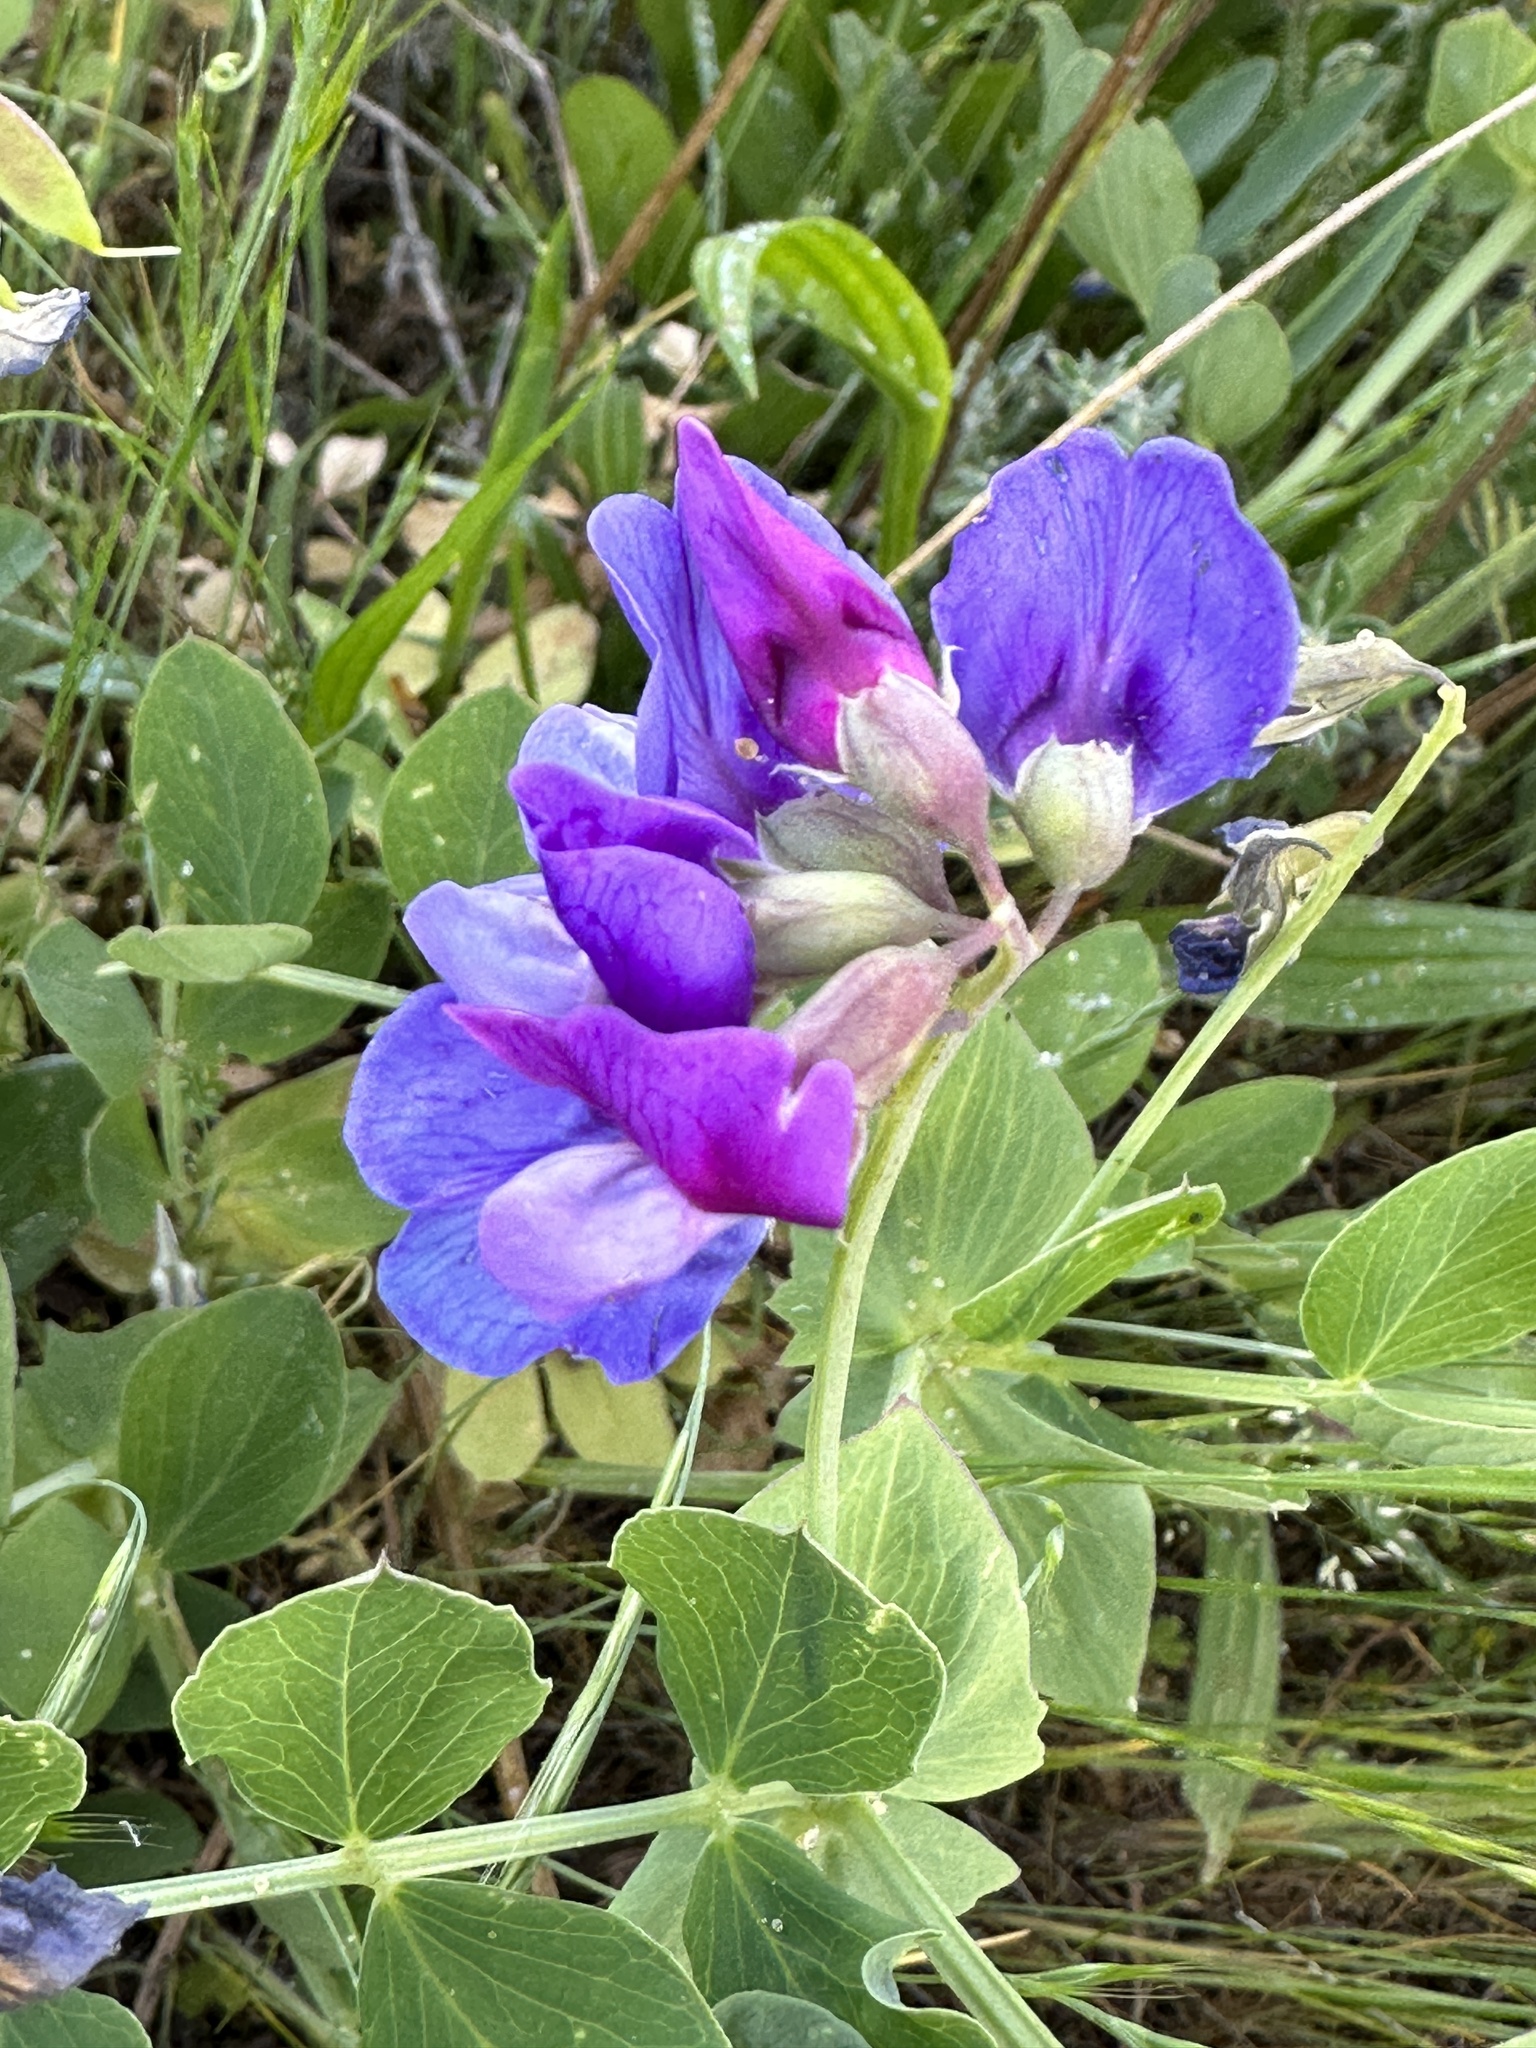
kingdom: Plantae
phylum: Tracheophyta
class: Magnoliopsida
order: Fabales
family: Fabaceae
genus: Lathyrus
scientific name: Lathyrus japonicus
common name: Sea pea
